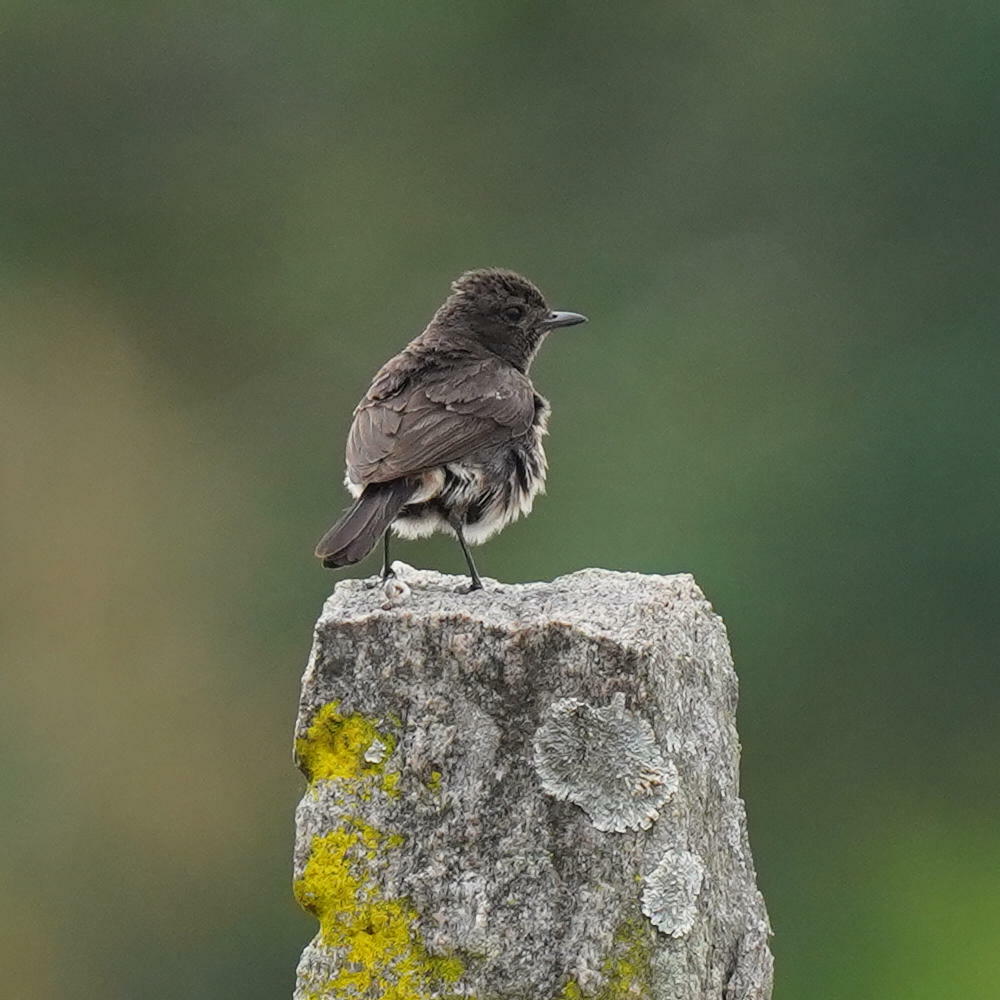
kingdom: Animalia
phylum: Chordata
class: Aves
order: Passeriformes
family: Muscicapidae
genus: Saxicola
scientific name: Saxicola caprata
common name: Pied bush chat
